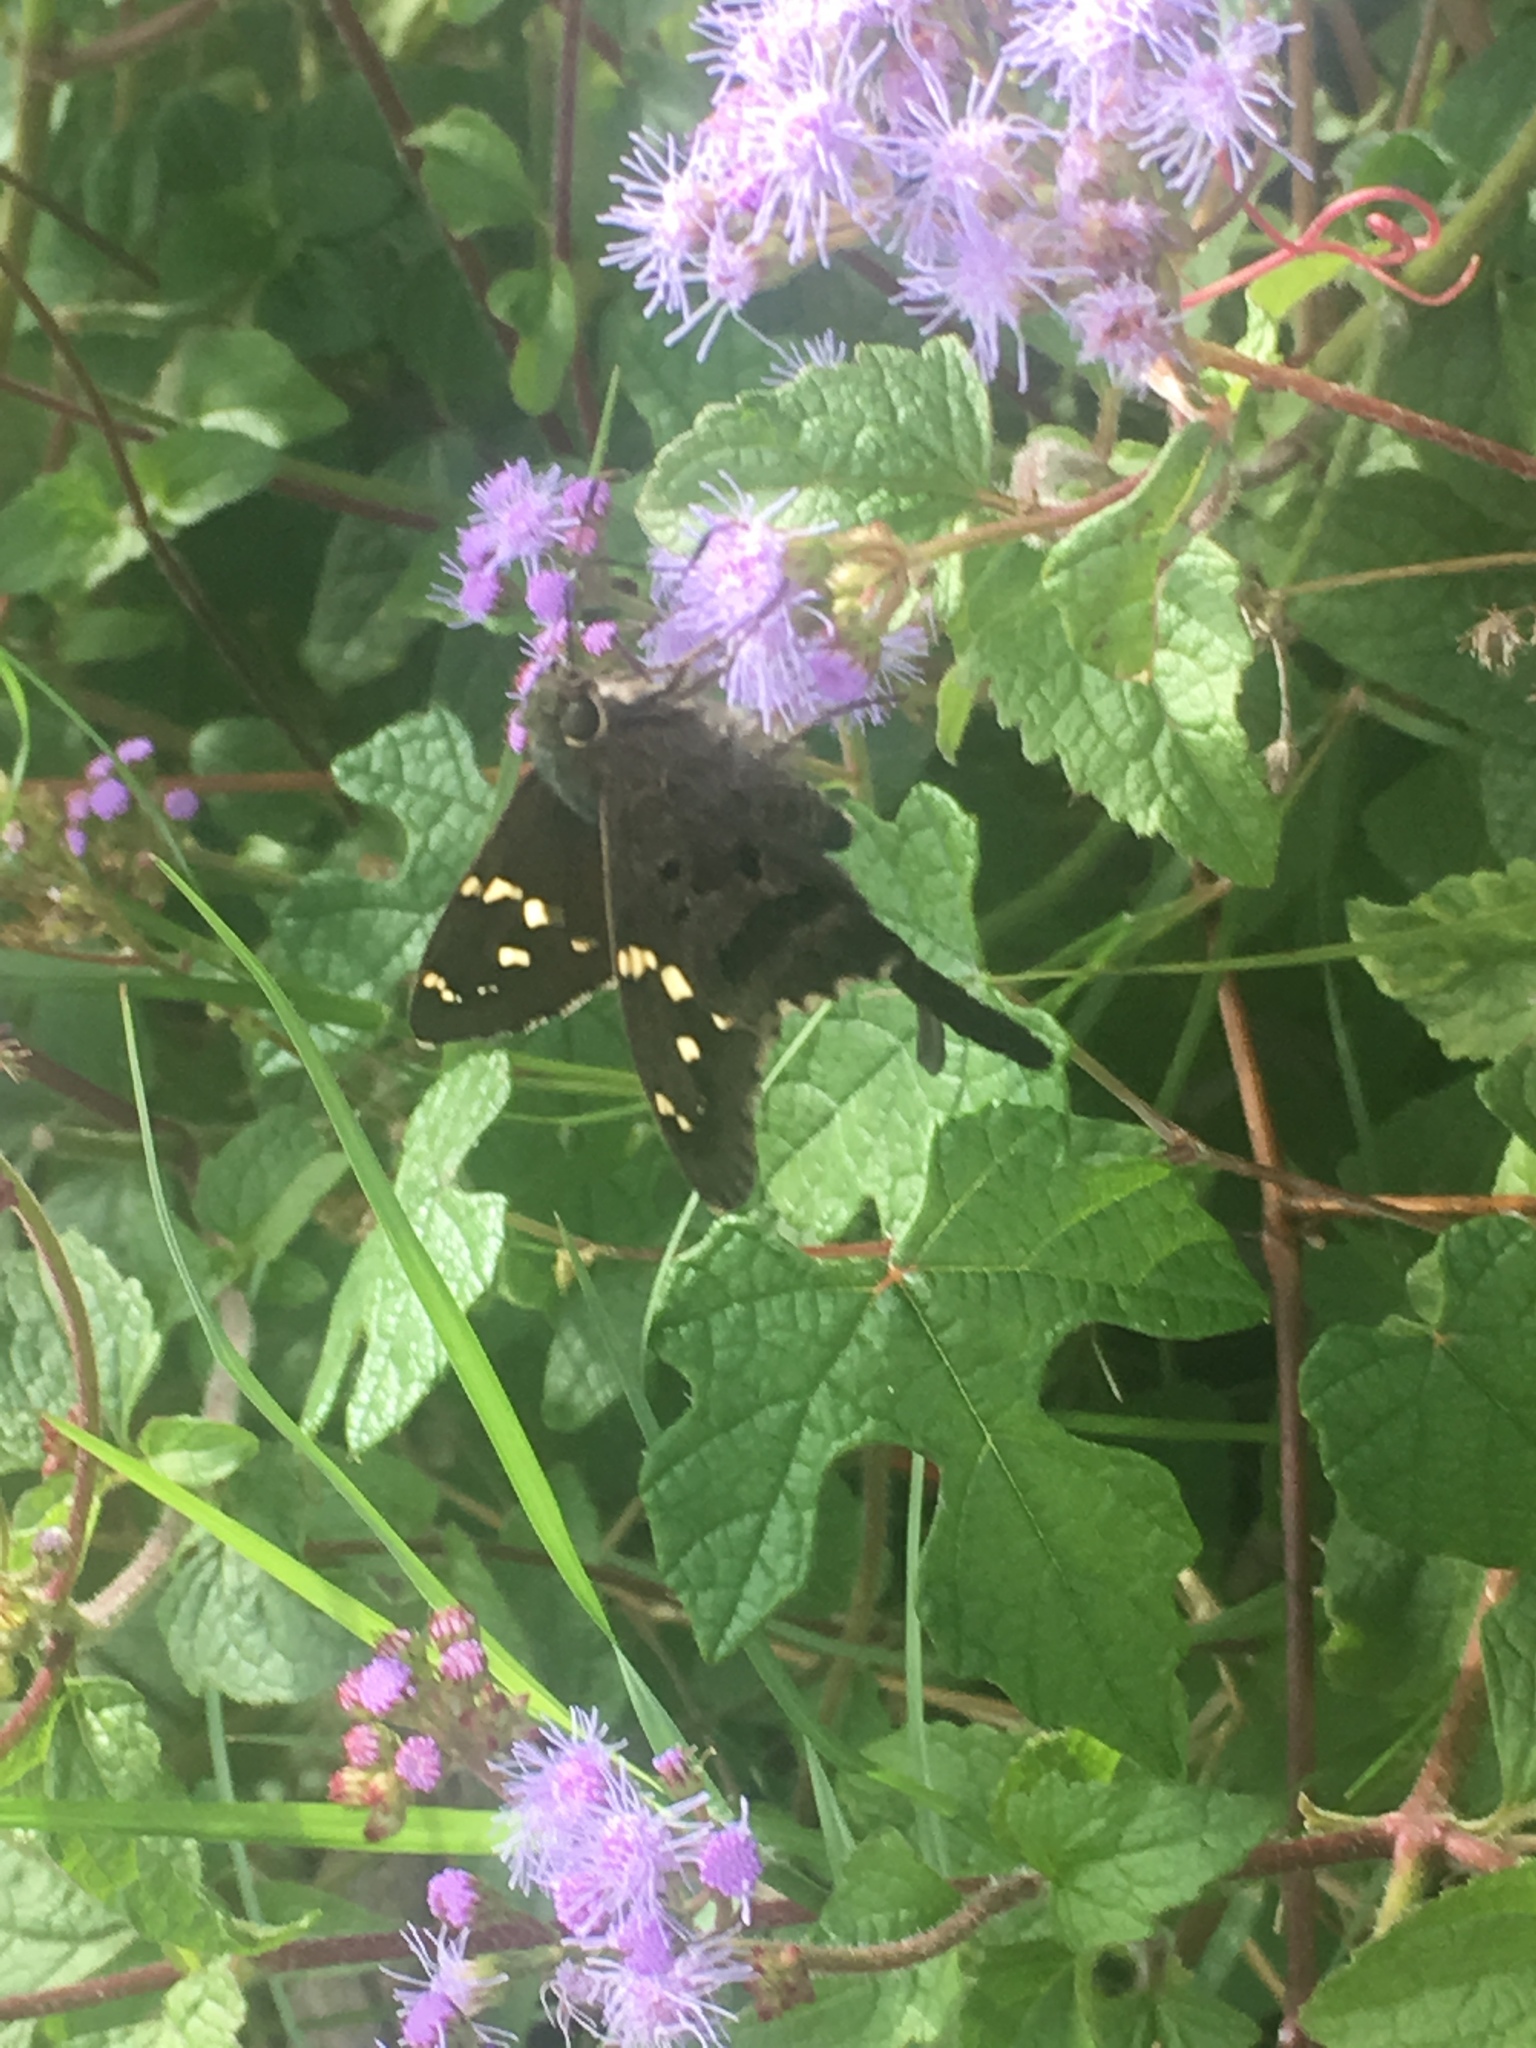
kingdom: Animalia
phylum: Arthropoda
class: Insecta
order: Lepidoptera
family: Hesperiidae
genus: Urbanus
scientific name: Urbanus proteus
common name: Long-tailed skipper
